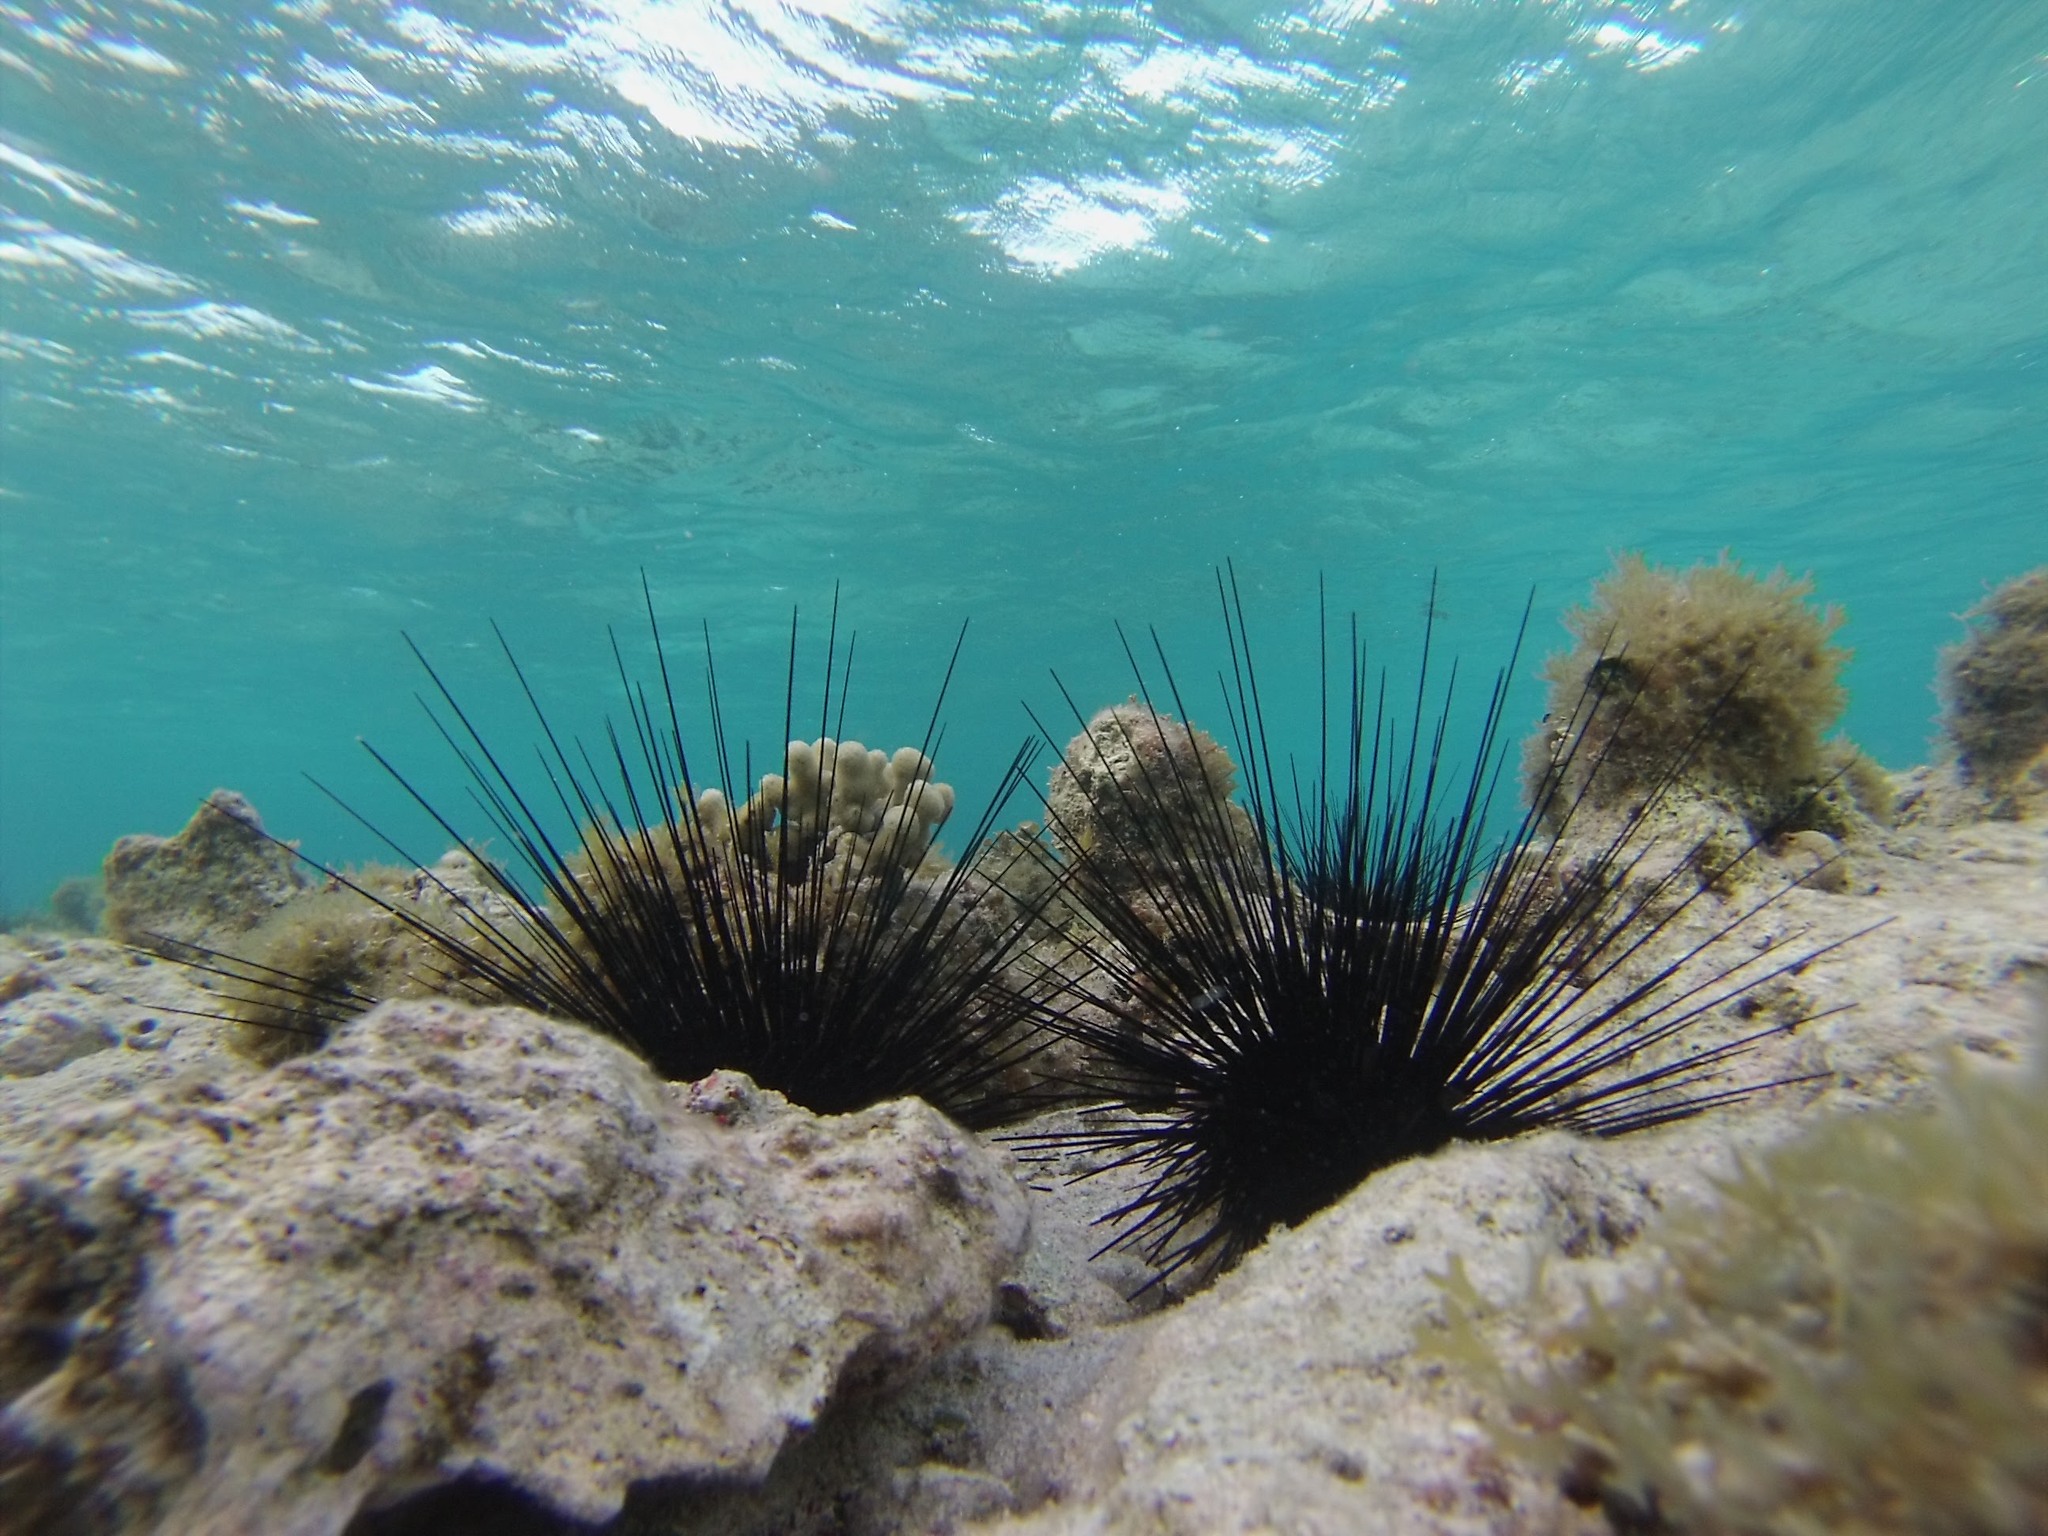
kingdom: Animalia
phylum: Echinodermata
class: Echinoidea
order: Diadematoida
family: Diadematidae
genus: Diadema
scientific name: Diadema antillarum
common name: Spiny urchin
